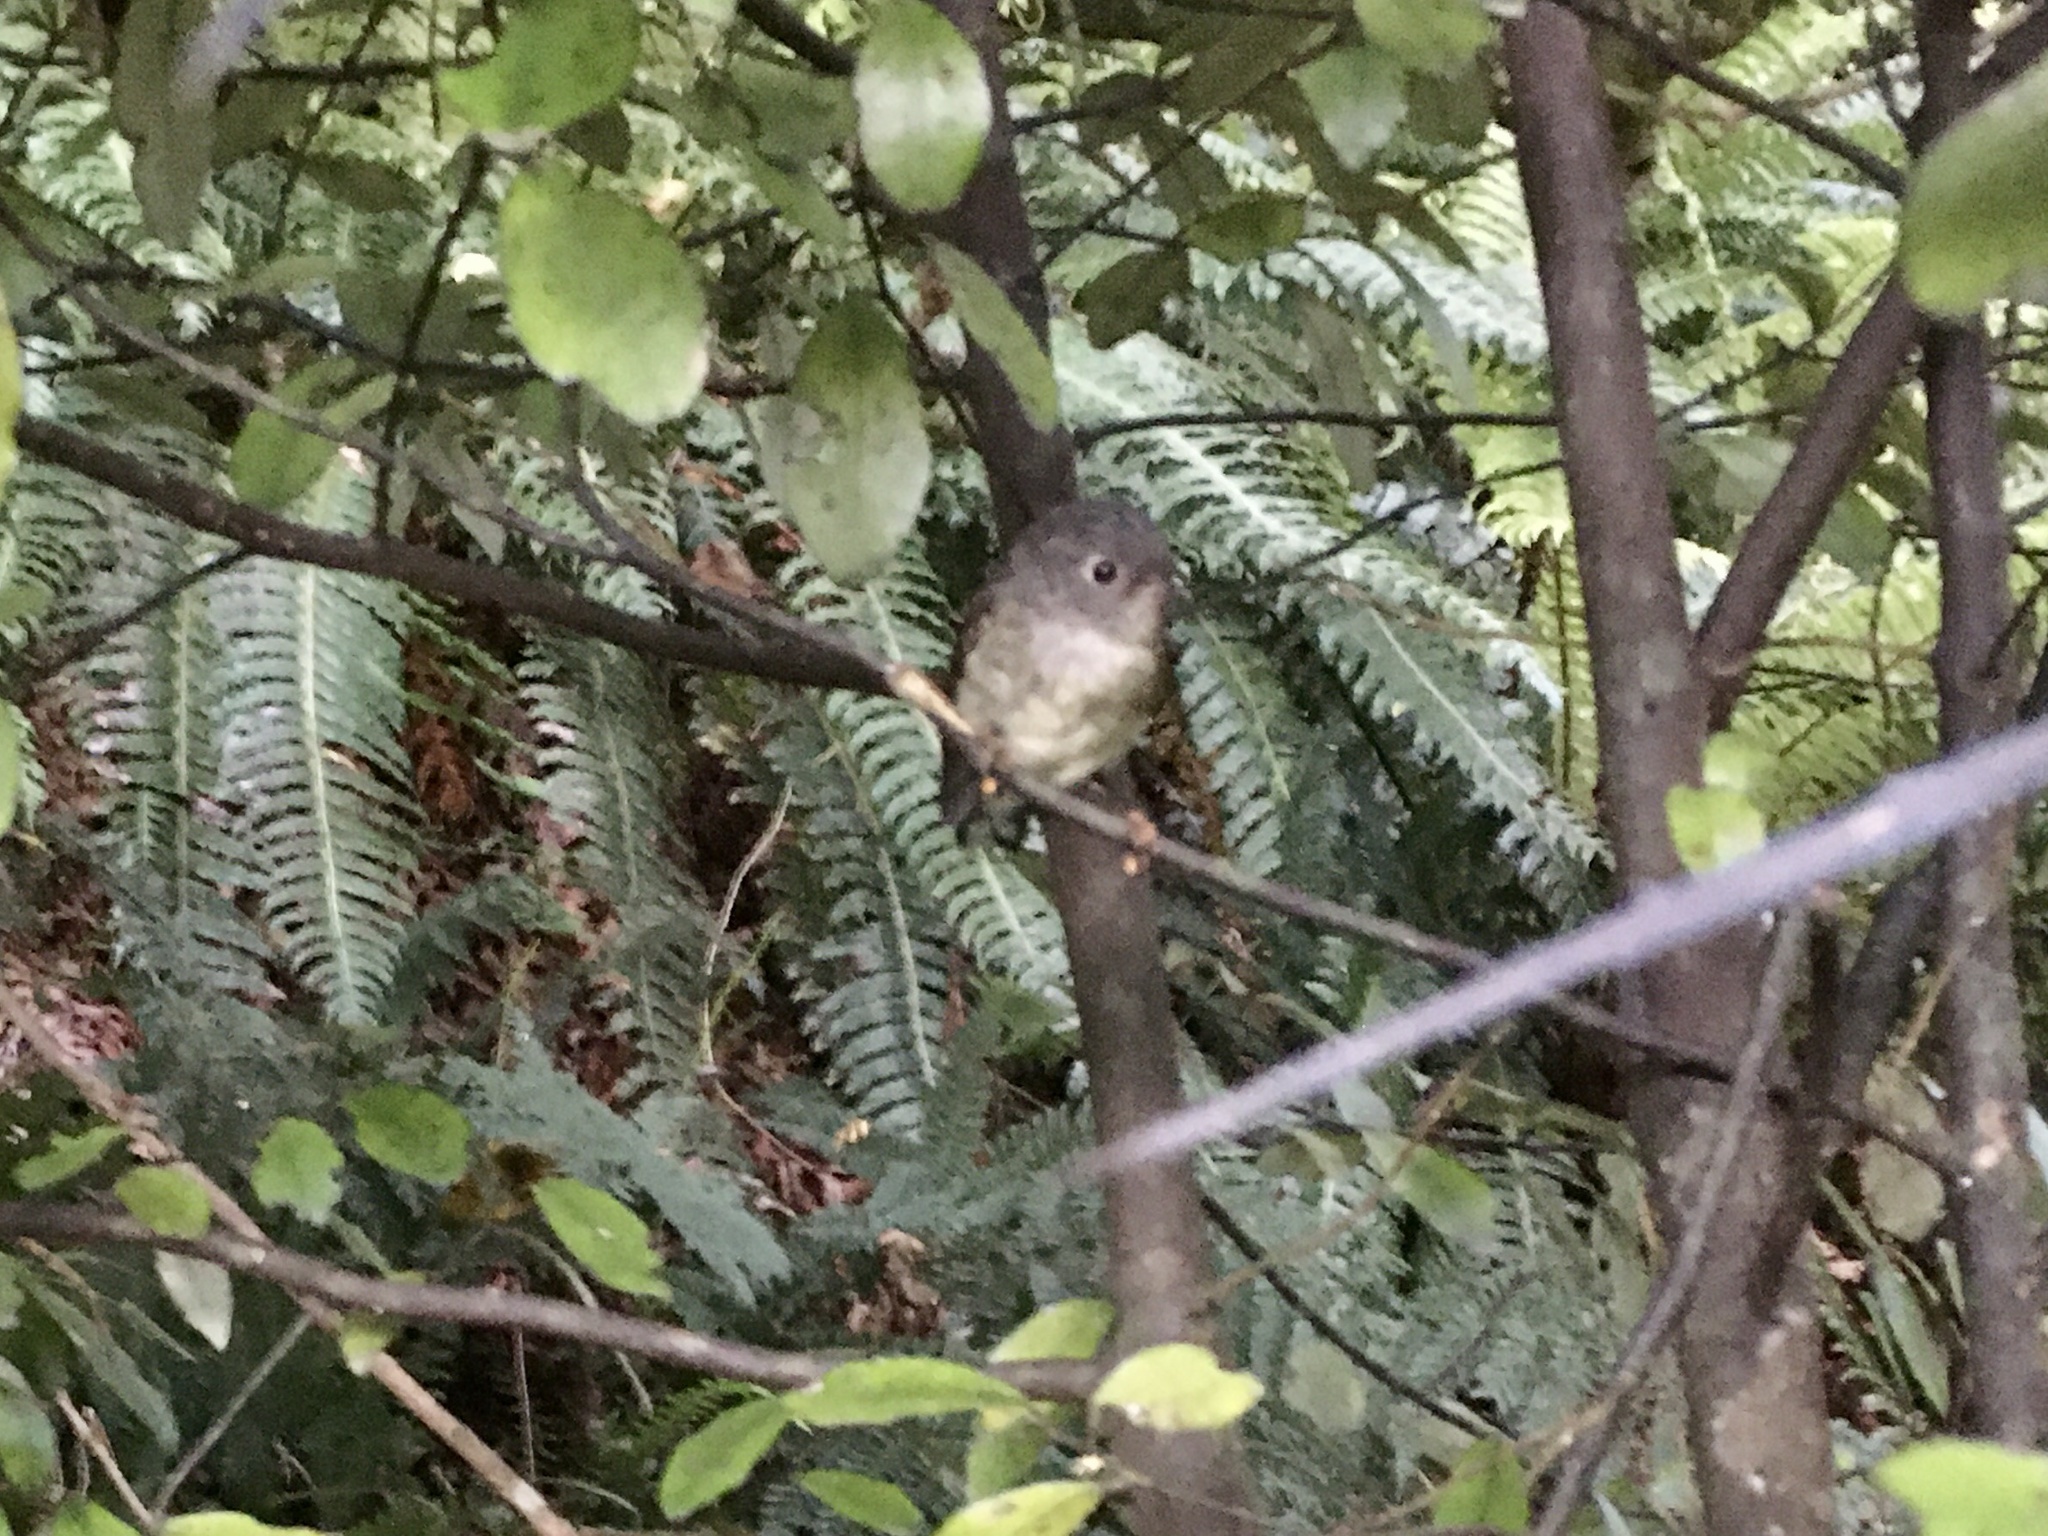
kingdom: Animalia
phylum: Chordata
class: Aves
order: Passeriformes
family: Petroicidae
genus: Petroica
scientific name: Petroica macrocephala
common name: Tomtit
